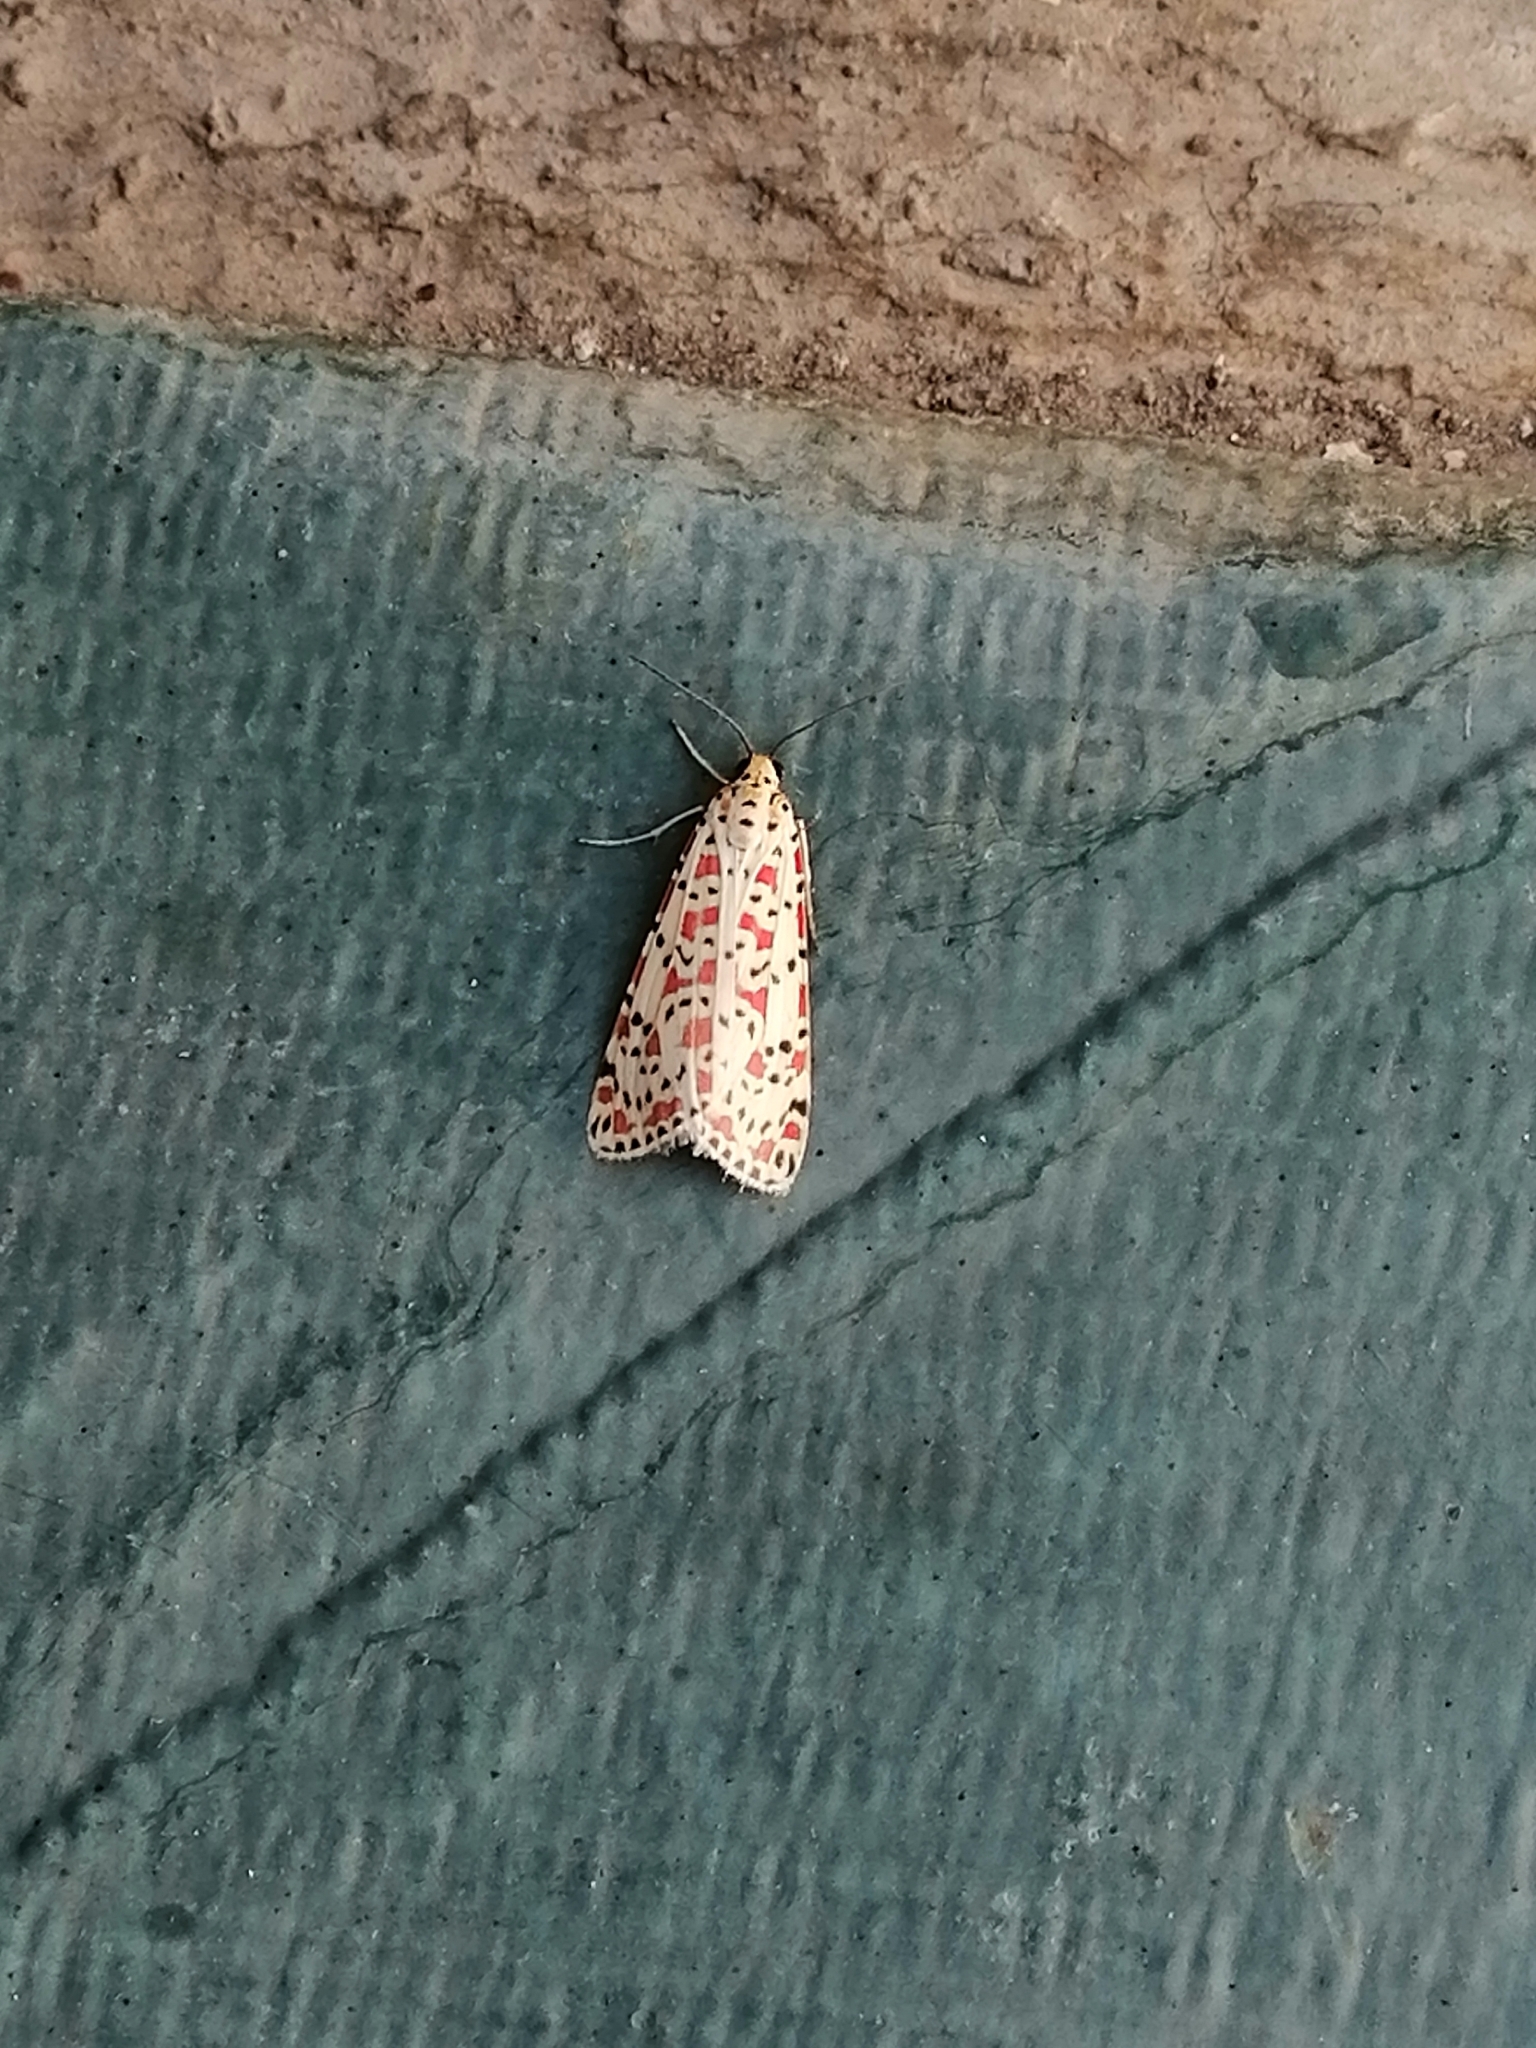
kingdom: Animalia
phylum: Arthropoda
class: Insecta
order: Lepidoptera
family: Erebidae
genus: Utetheisa
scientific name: Utetheisa pulchella
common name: Crimson speckled
